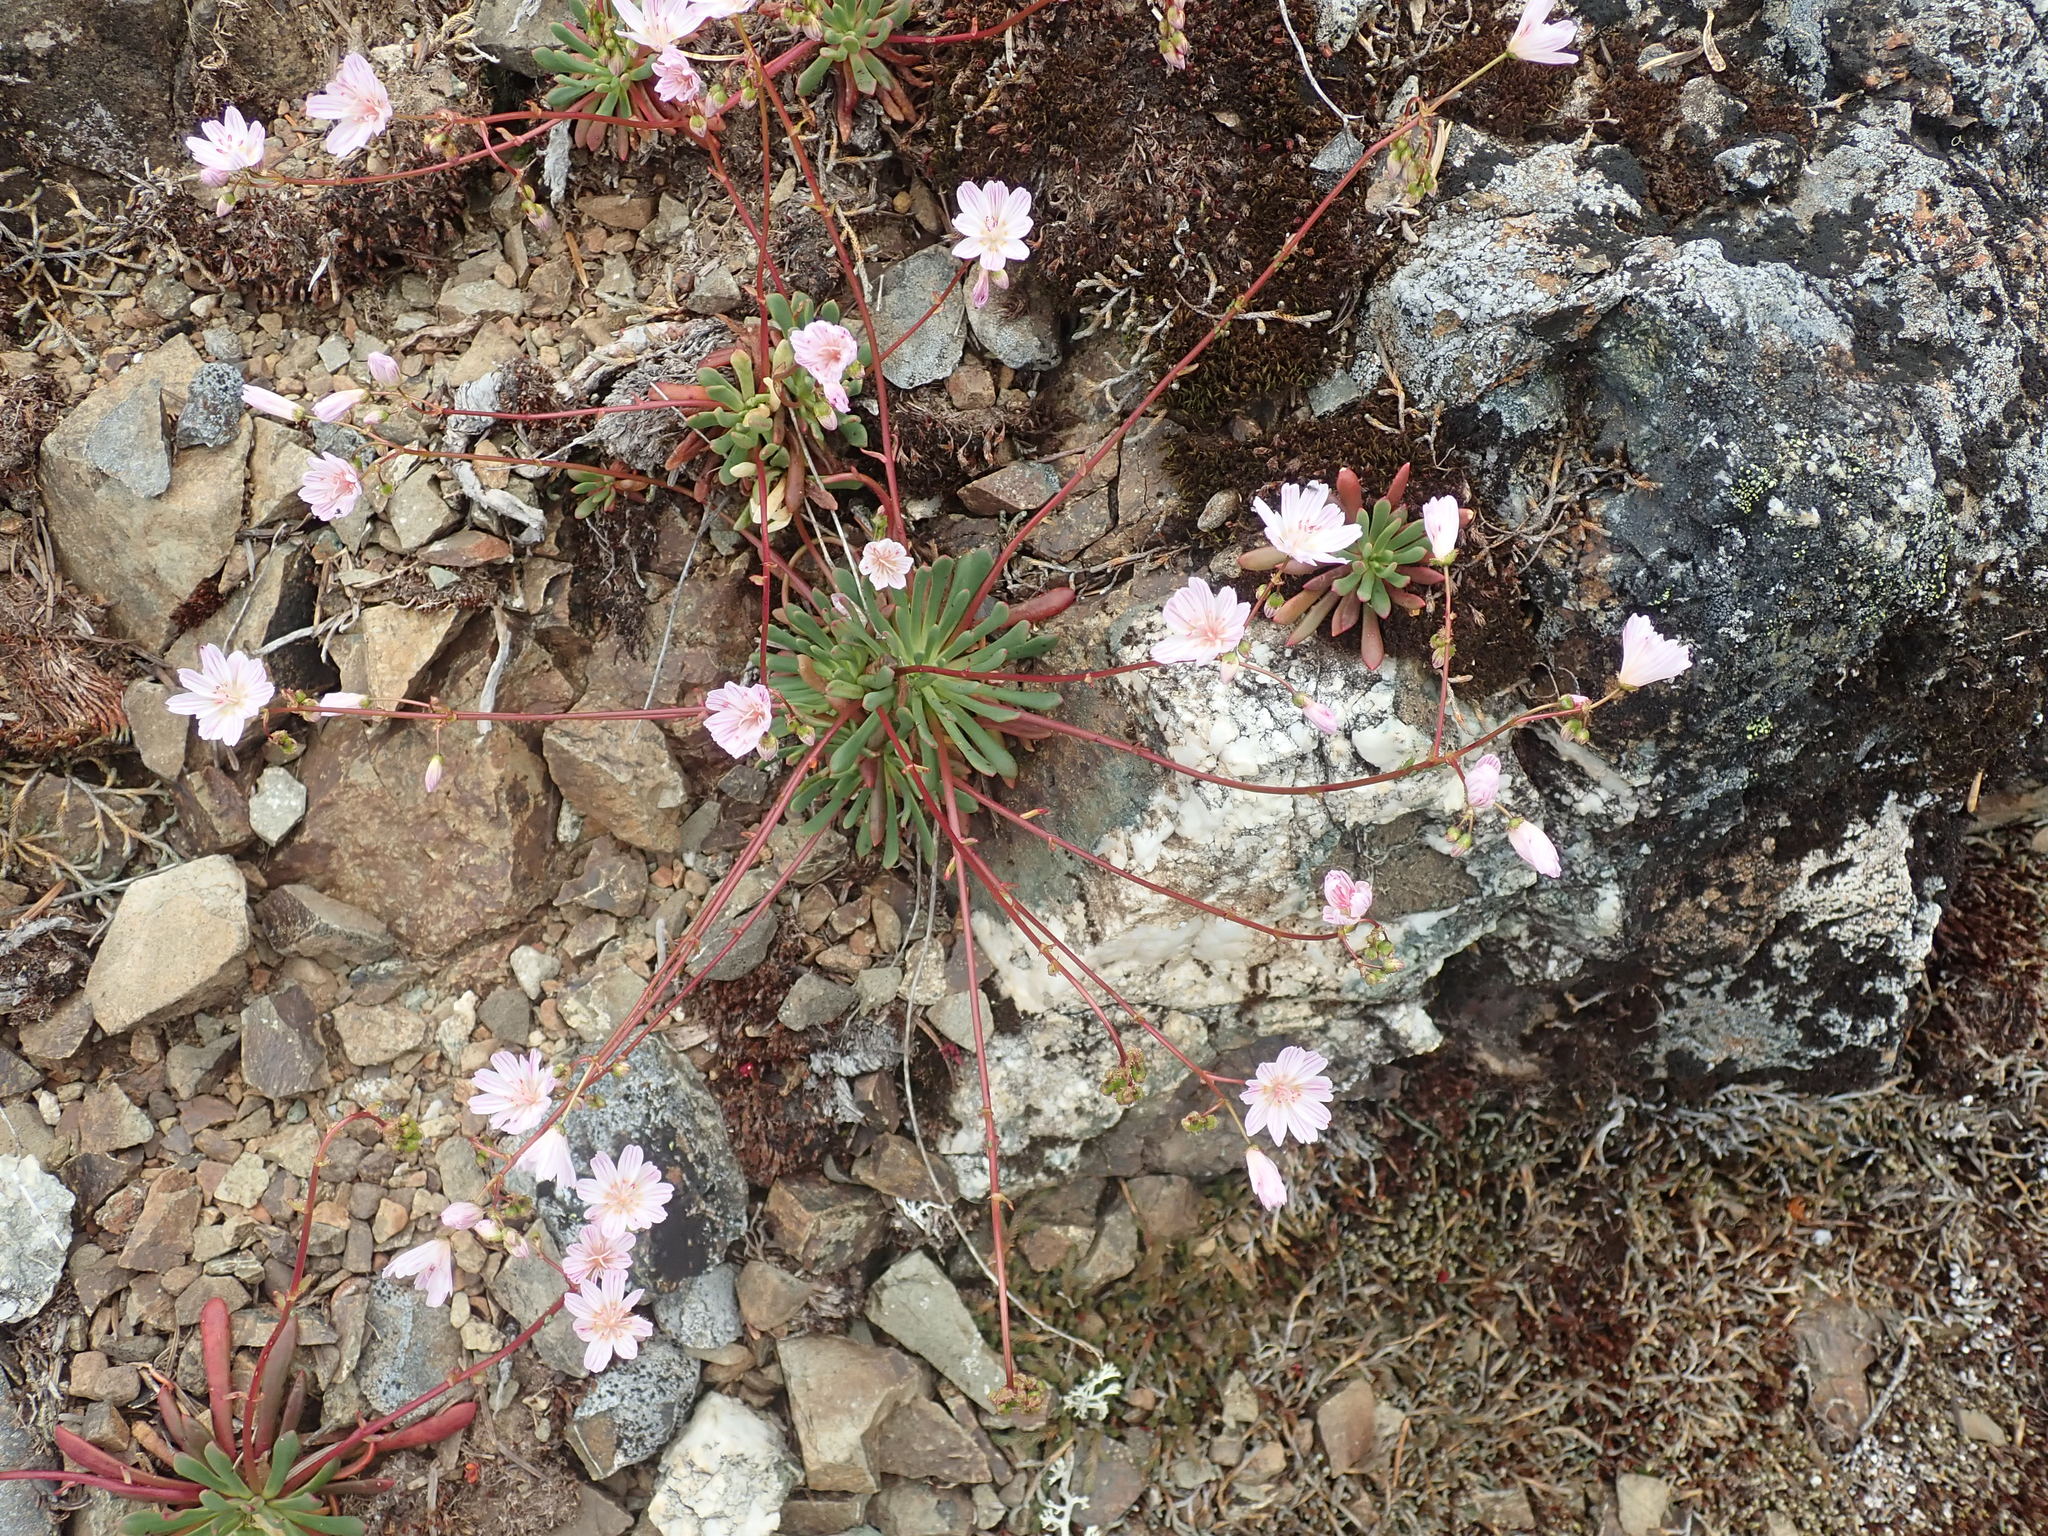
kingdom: Plantae
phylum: Tracheophyta
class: Magnoliopsida
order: Caryophyllales
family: Montiaceae
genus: Lewisia
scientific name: Lewisia columbiana
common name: Columbia lewisia
